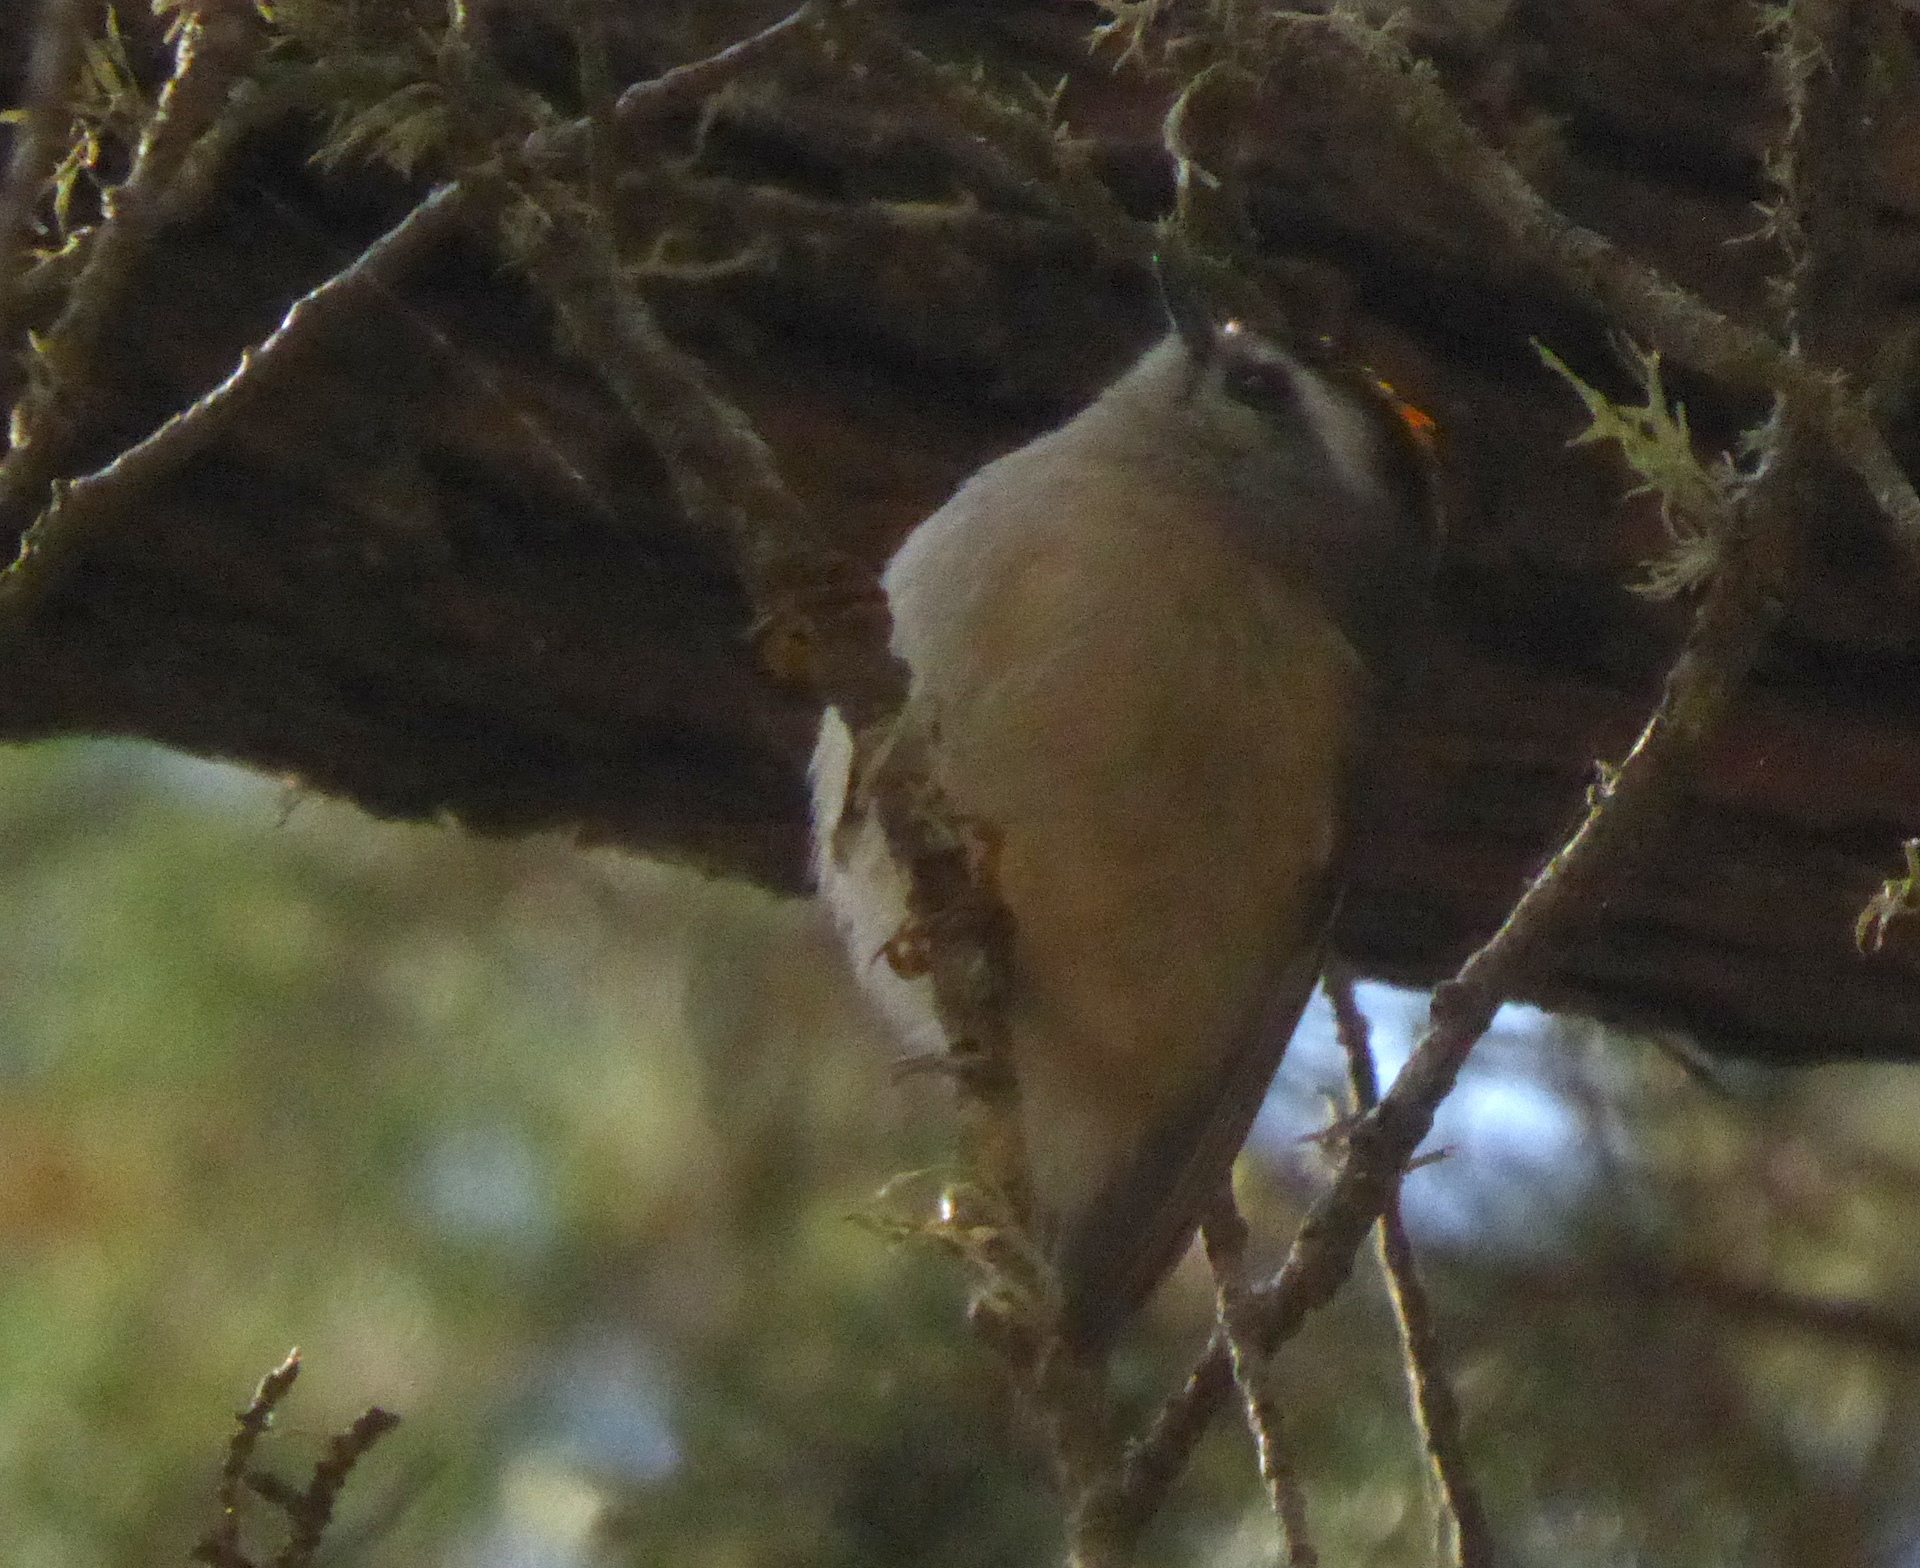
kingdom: Animalia
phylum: Chordata
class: Aves
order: Passeriformes
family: Regulidae
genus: Regulus
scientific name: Regulus satrapa
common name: Golden-crowned kinglet
